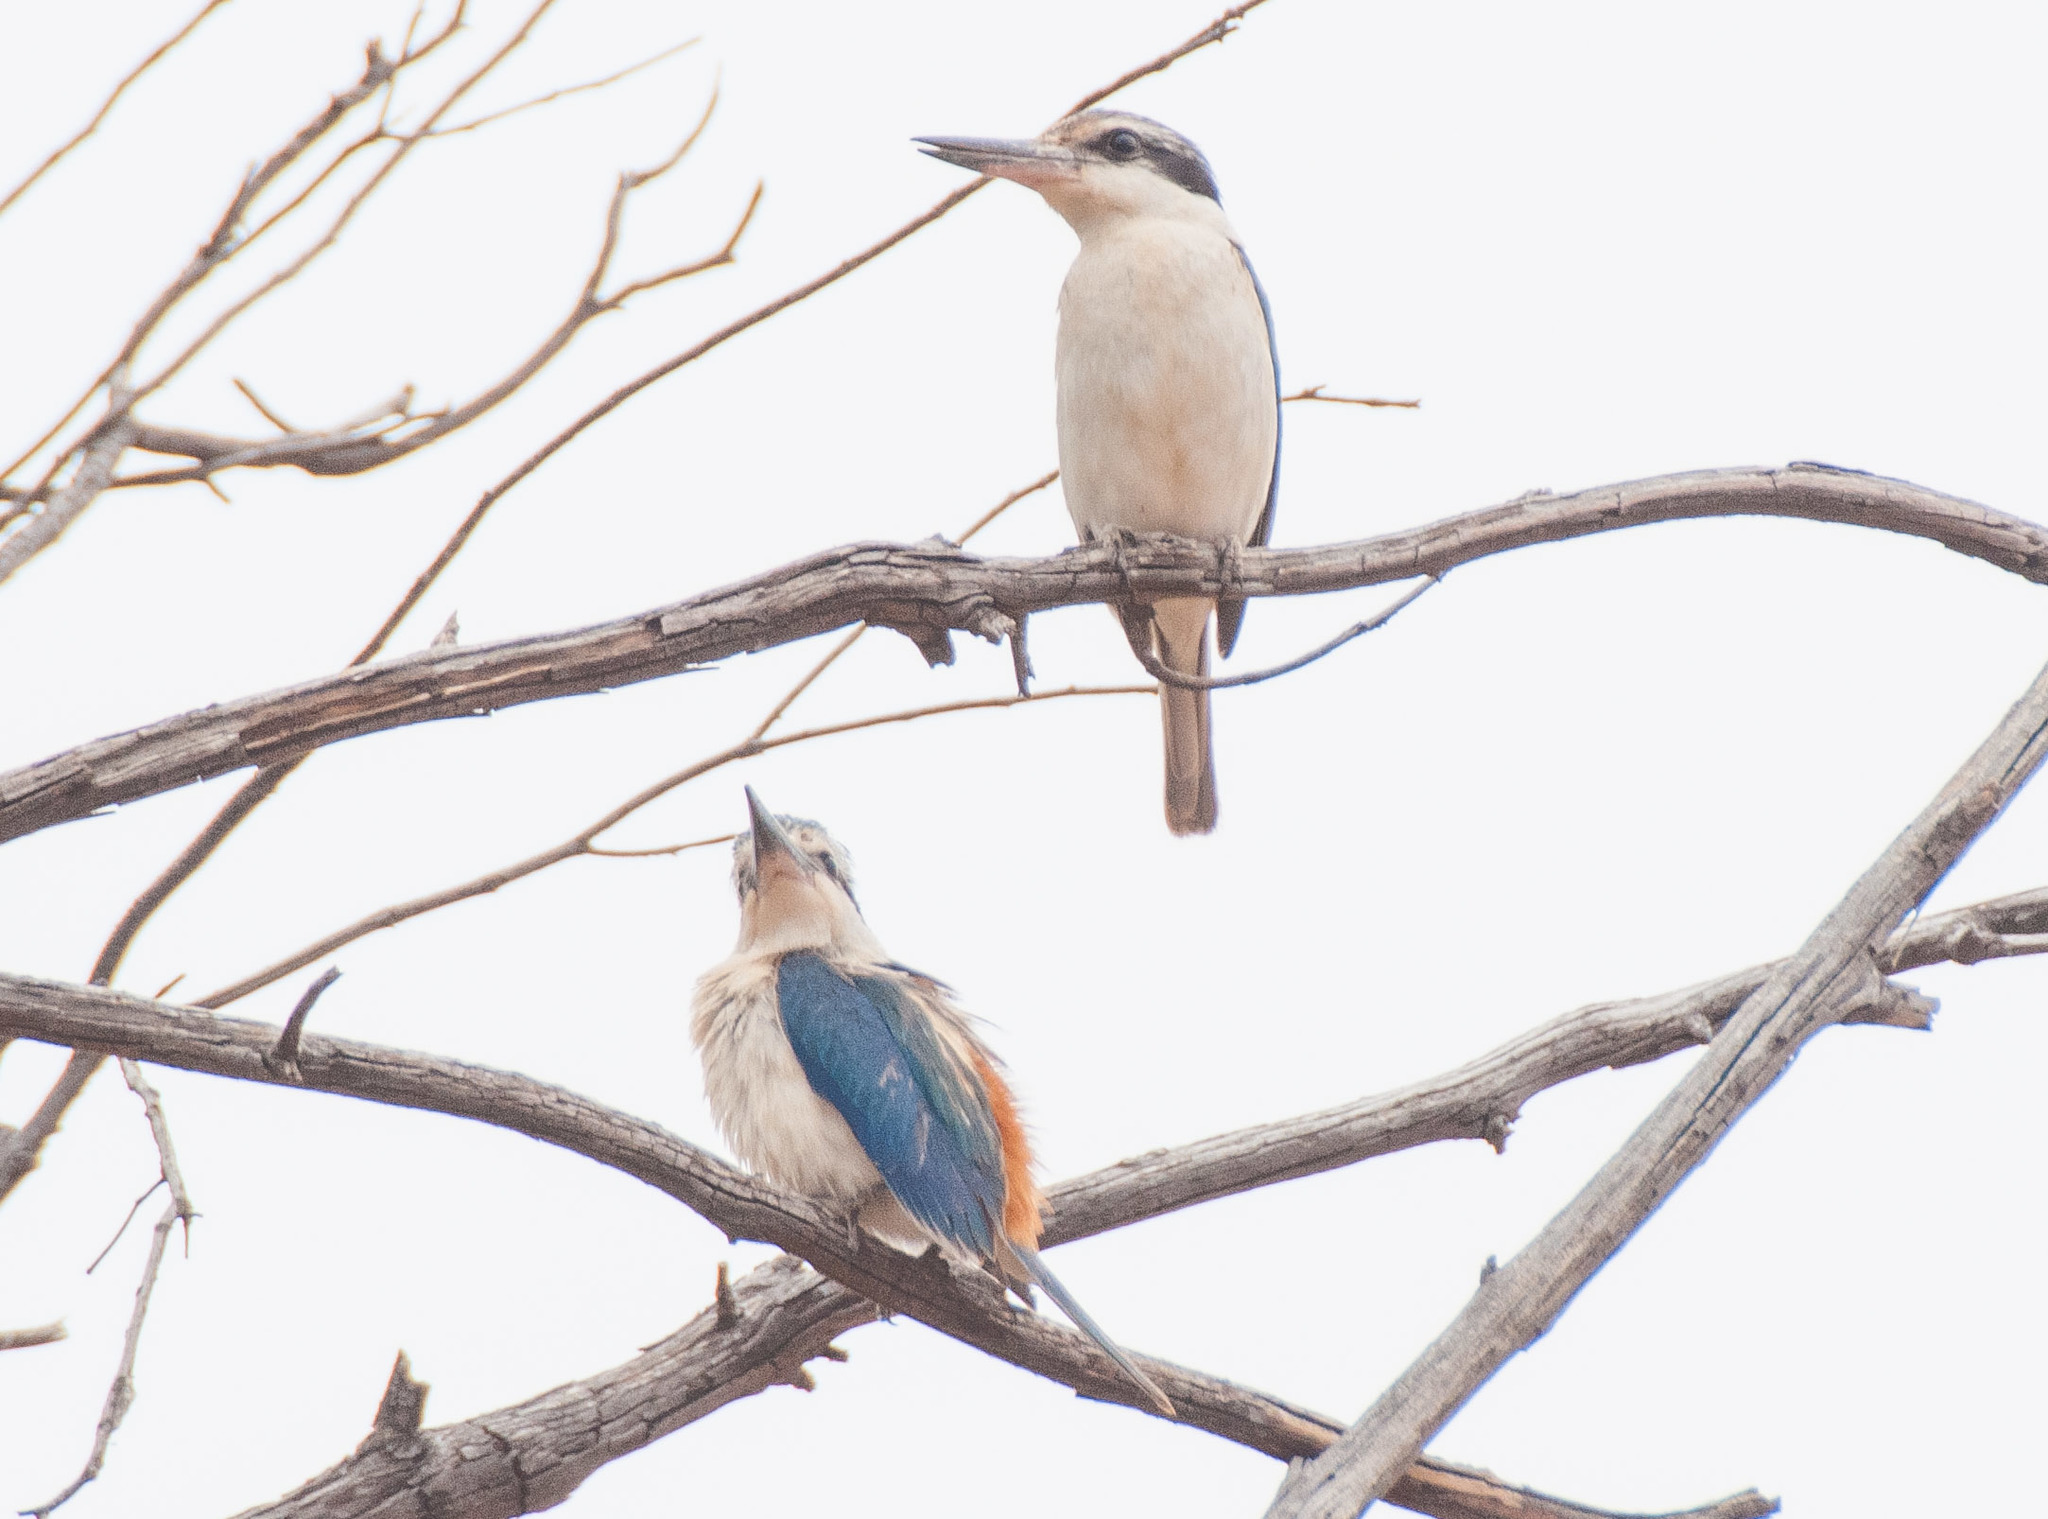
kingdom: Animalia
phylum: Chordata
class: Aves
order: Coraciiformes
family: Alcedinidae
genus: Todiramphus
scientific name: Todiramphus pyrrhopygius
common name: Red-backed kingfisher
